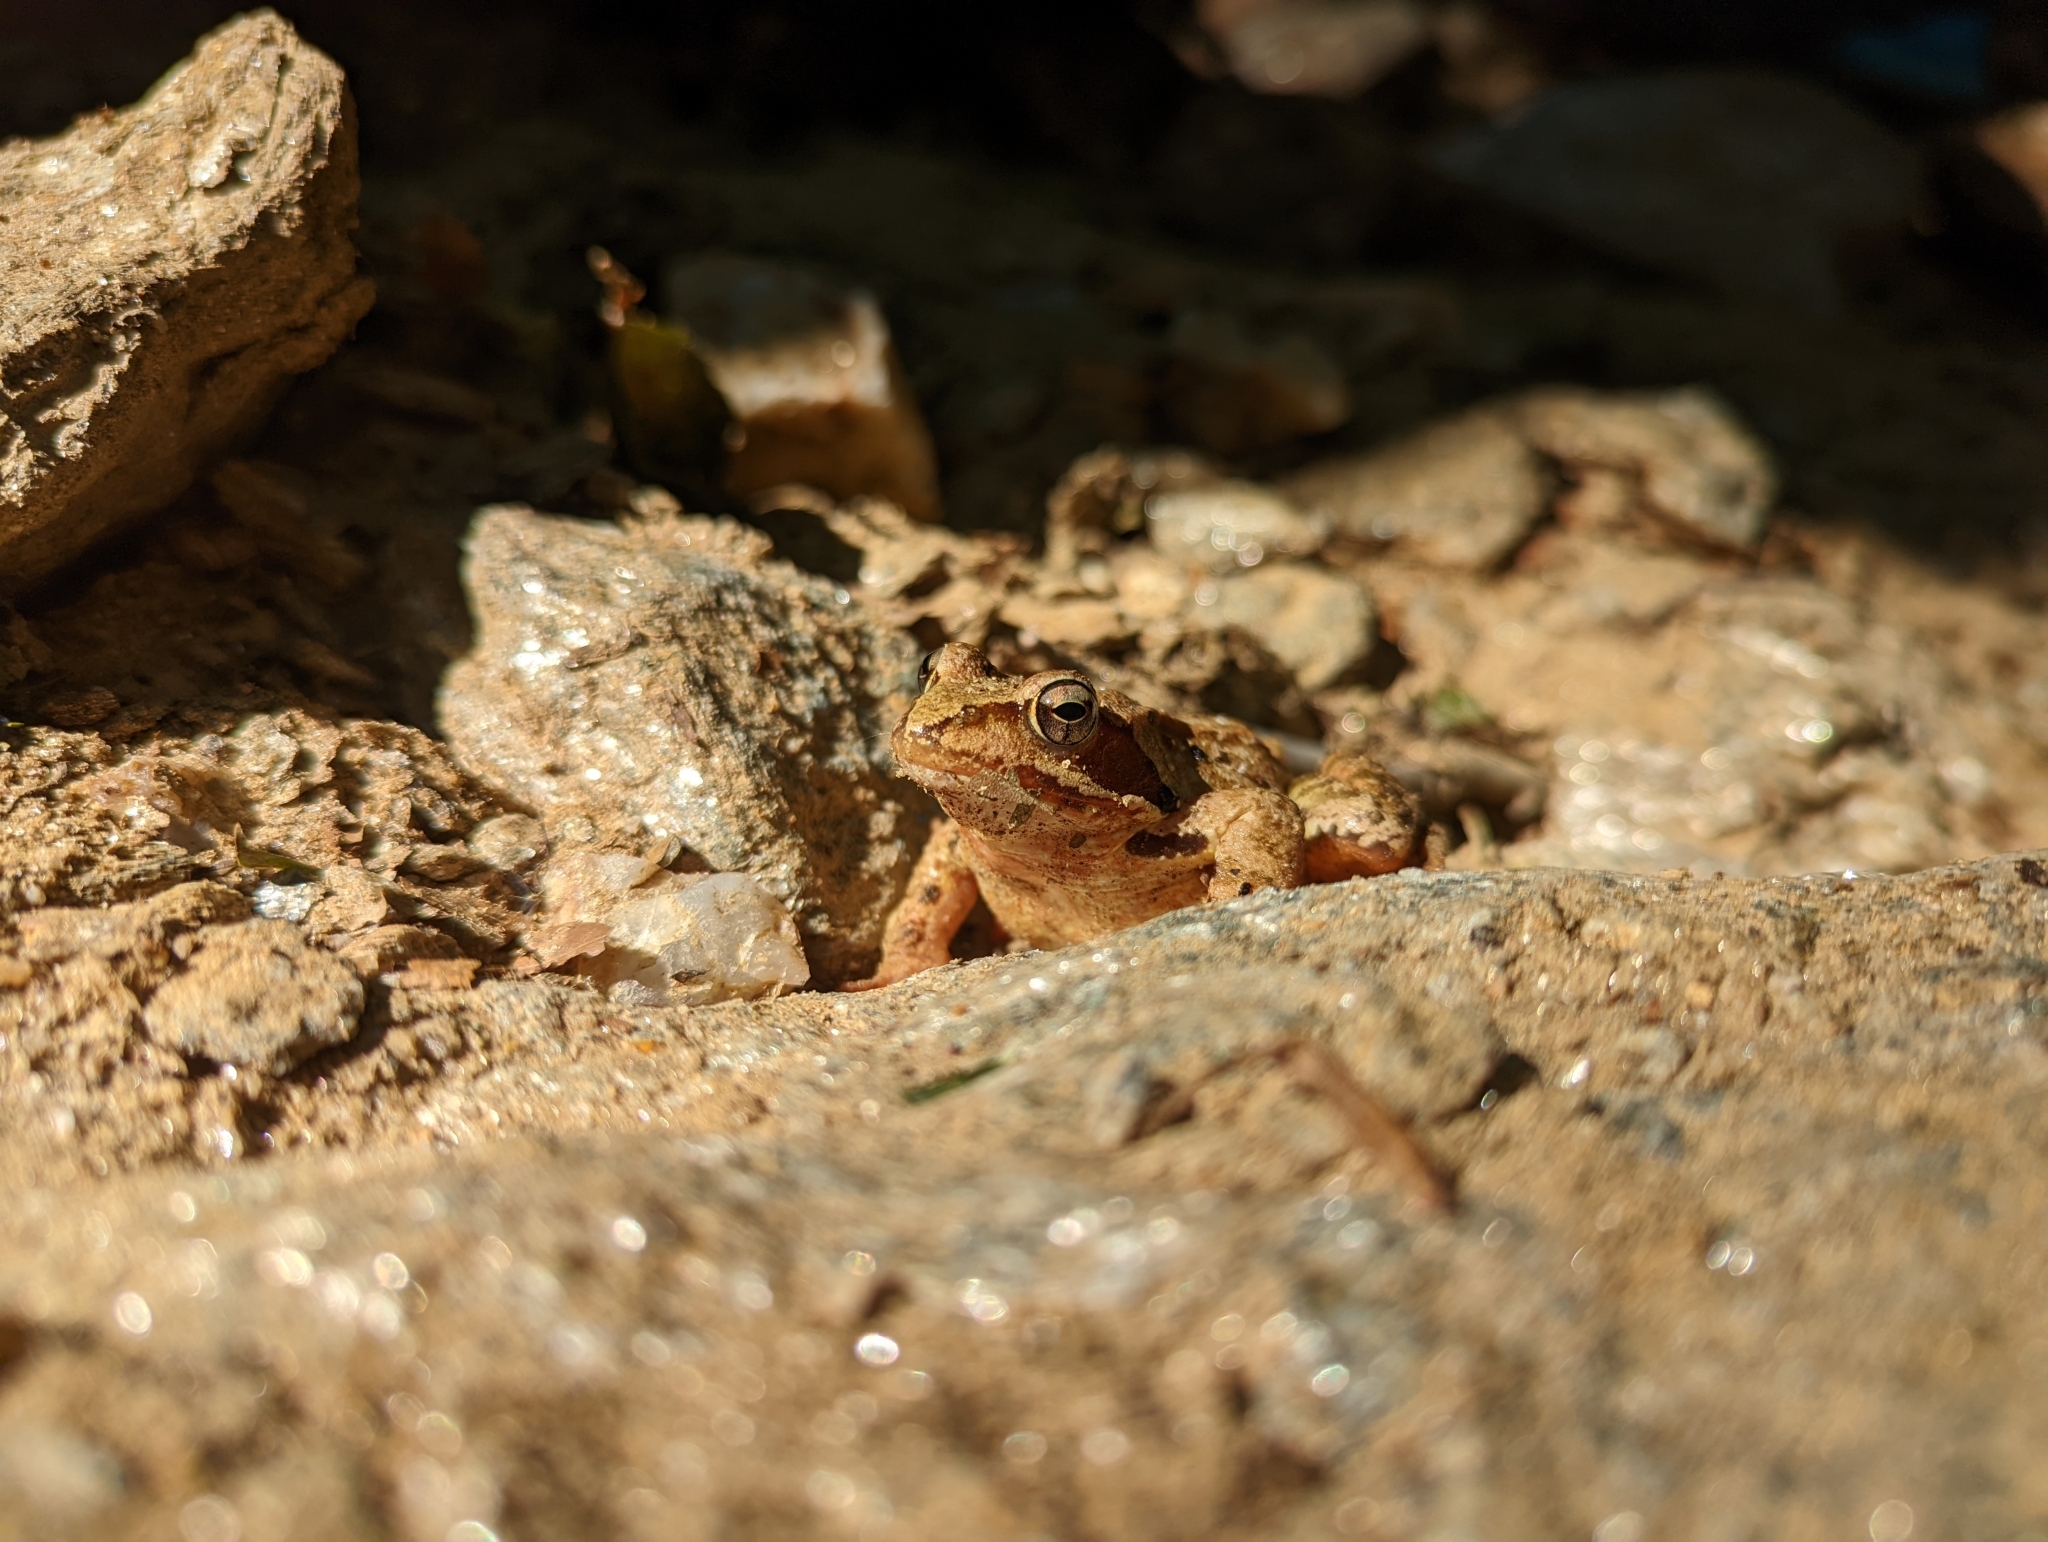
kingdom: Animalia
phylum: Chordata
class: Amphibia
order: Anura
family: Ranidae
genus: Rana
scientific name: Rana temporaria
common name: Common frog
